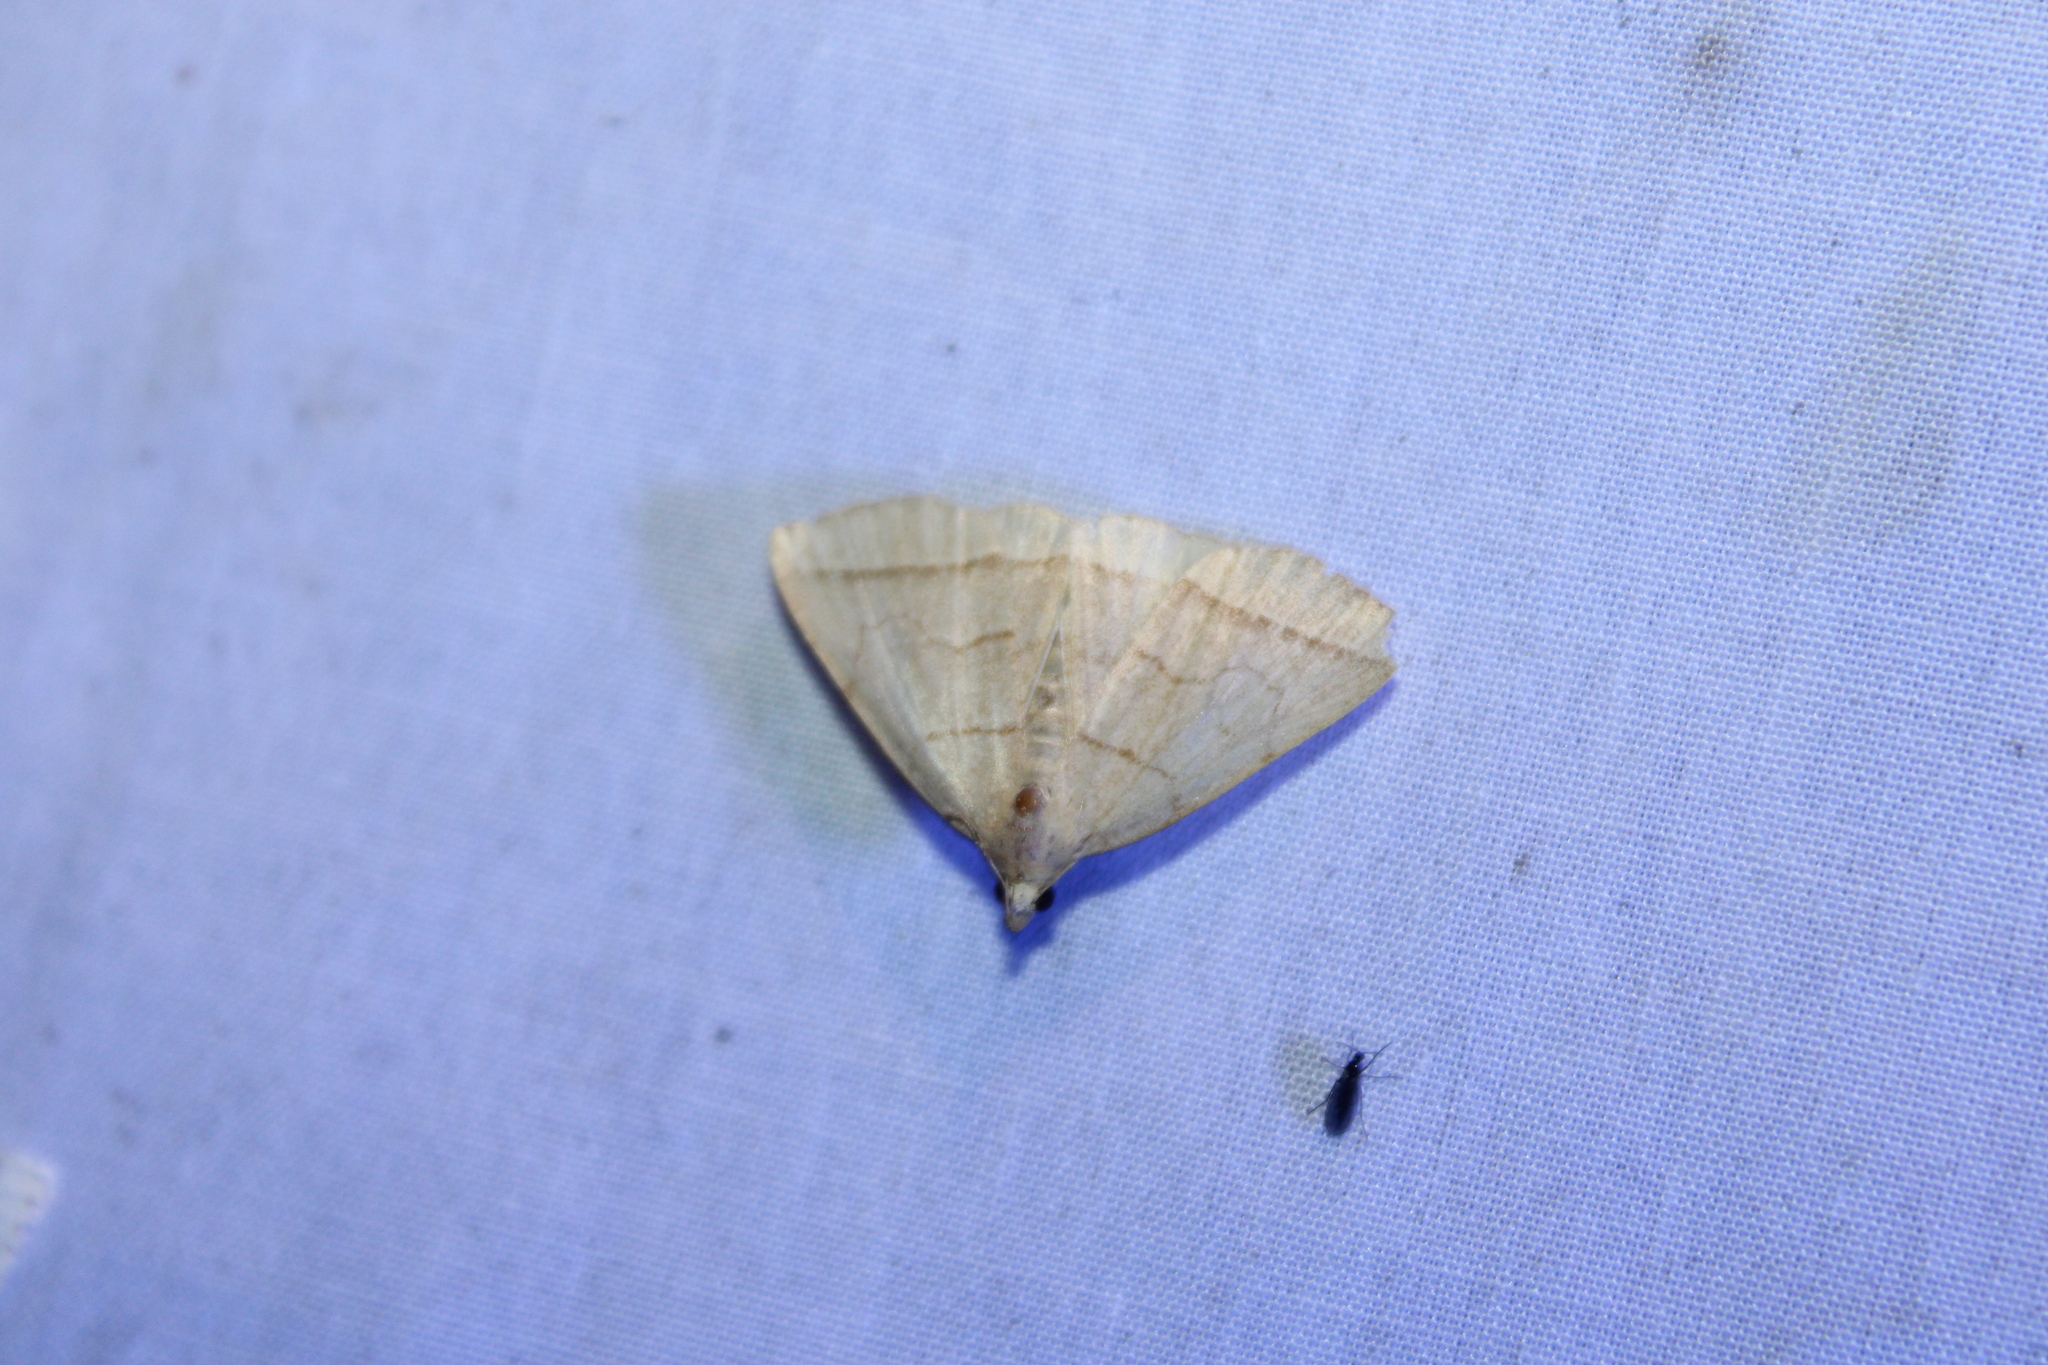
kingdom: Animalia
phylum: Arthropoda
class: Insecta
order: Lepidoptera
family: Erebidae
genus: Zanclognatha
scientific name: Zanclognatha cruralis
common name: Early fan-foot
